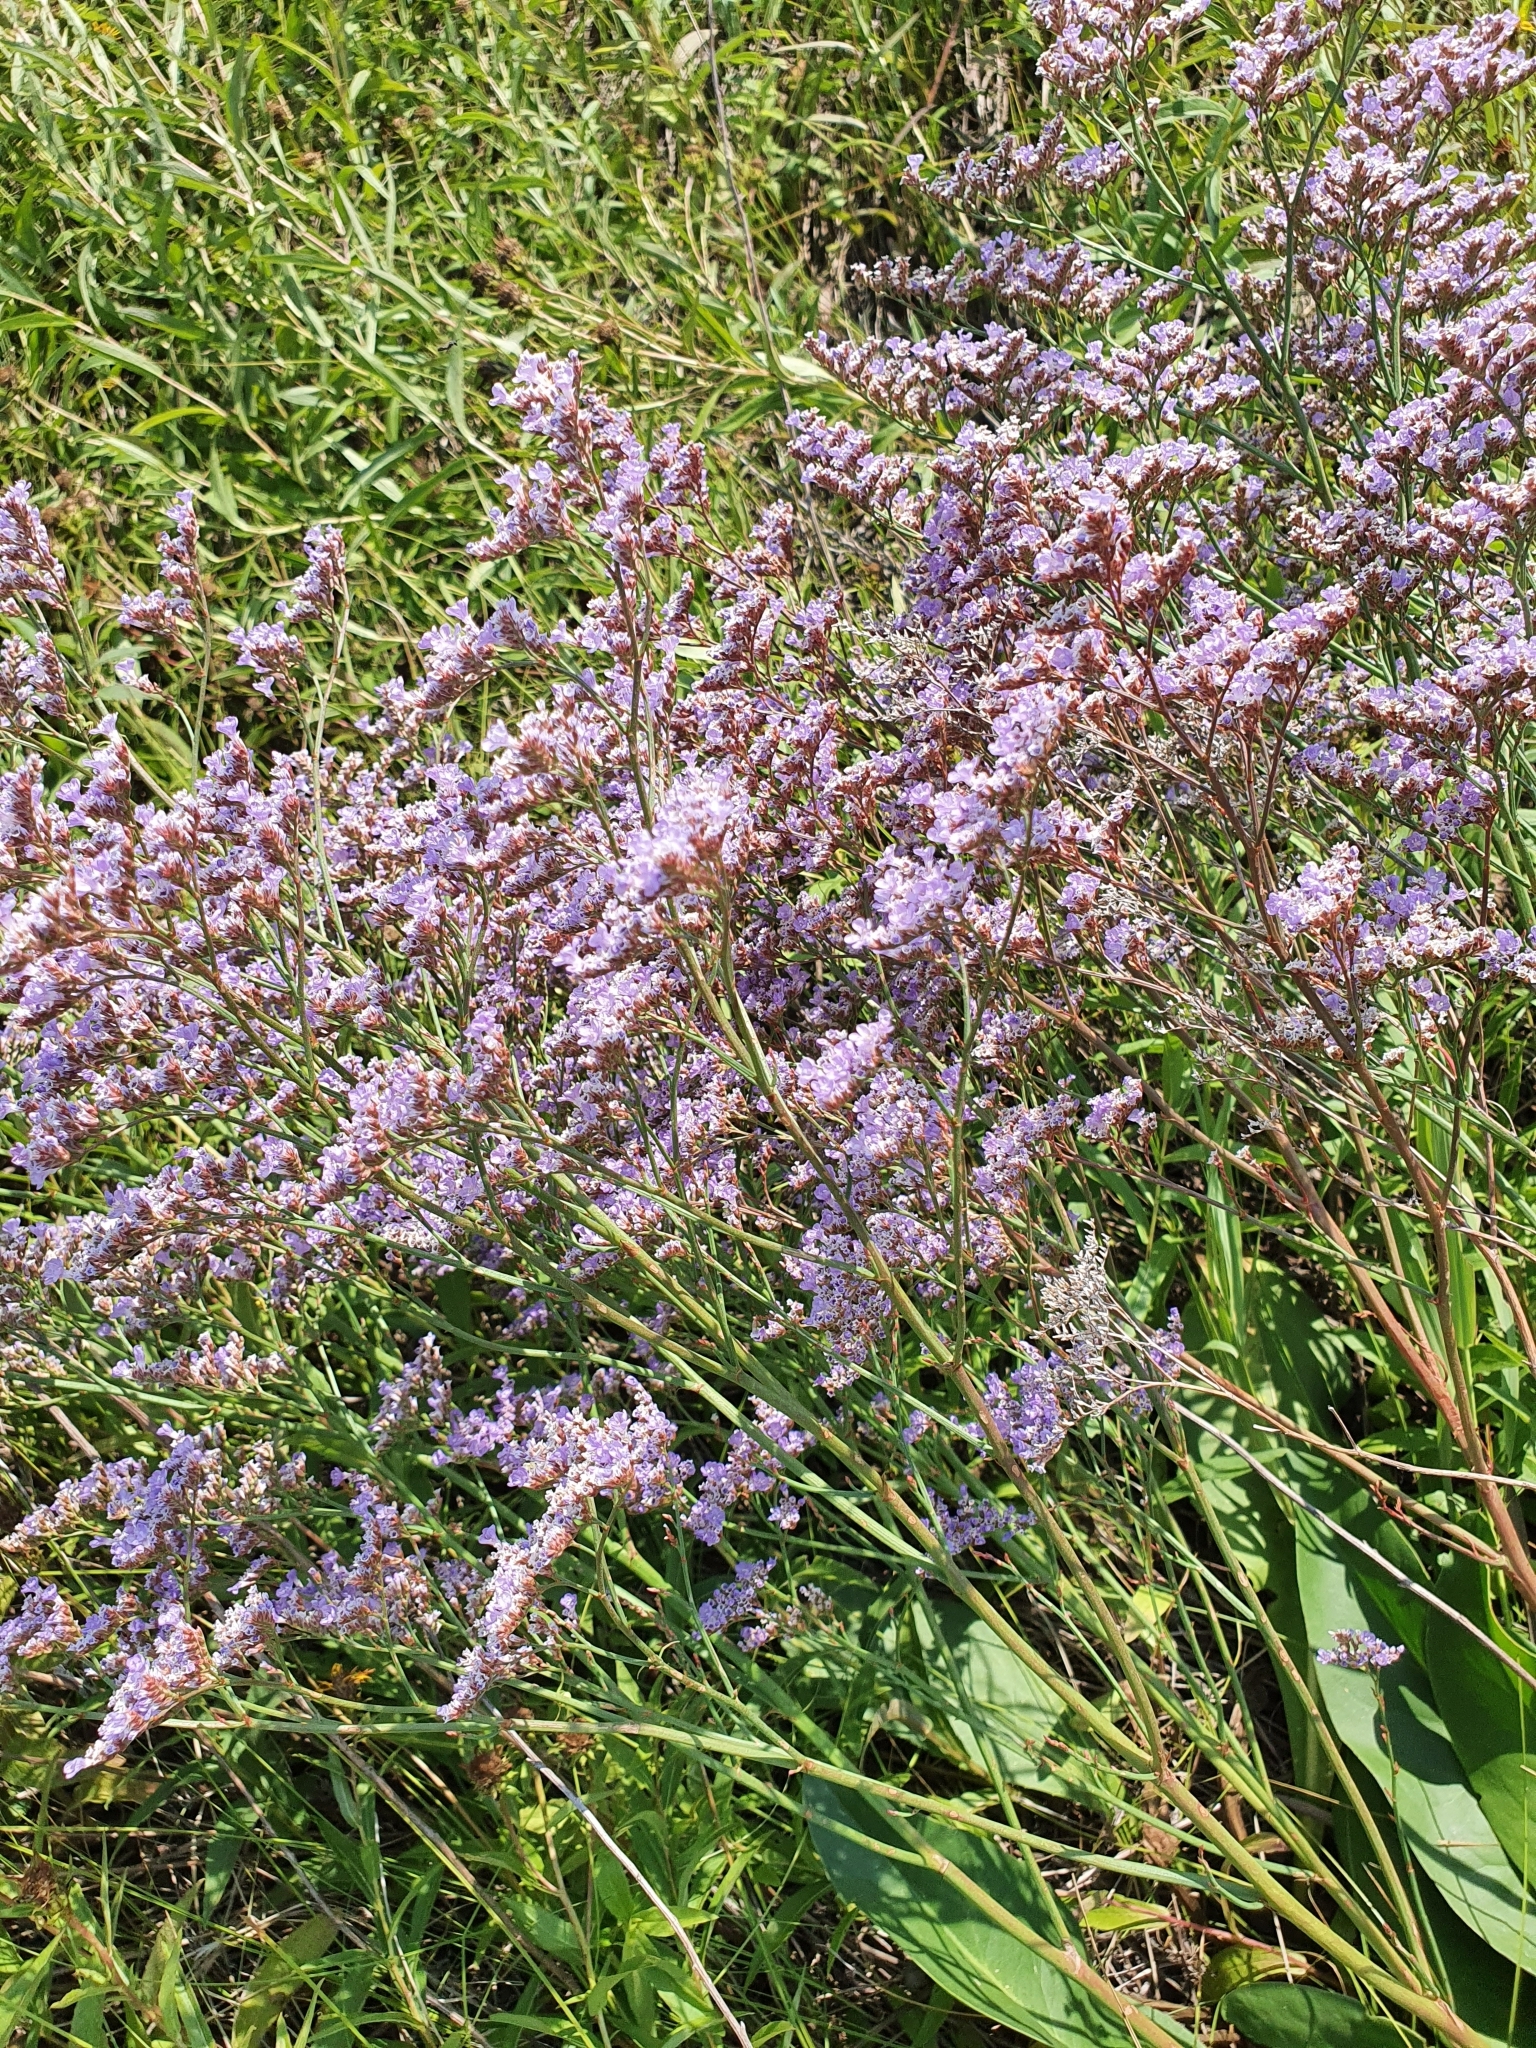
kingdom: Plantae
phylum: Tracheophyta
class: Magnoliopsida
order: Caryophyllales
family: Plumbaginaceae
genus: Limonium
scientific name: Limonium gmelini
